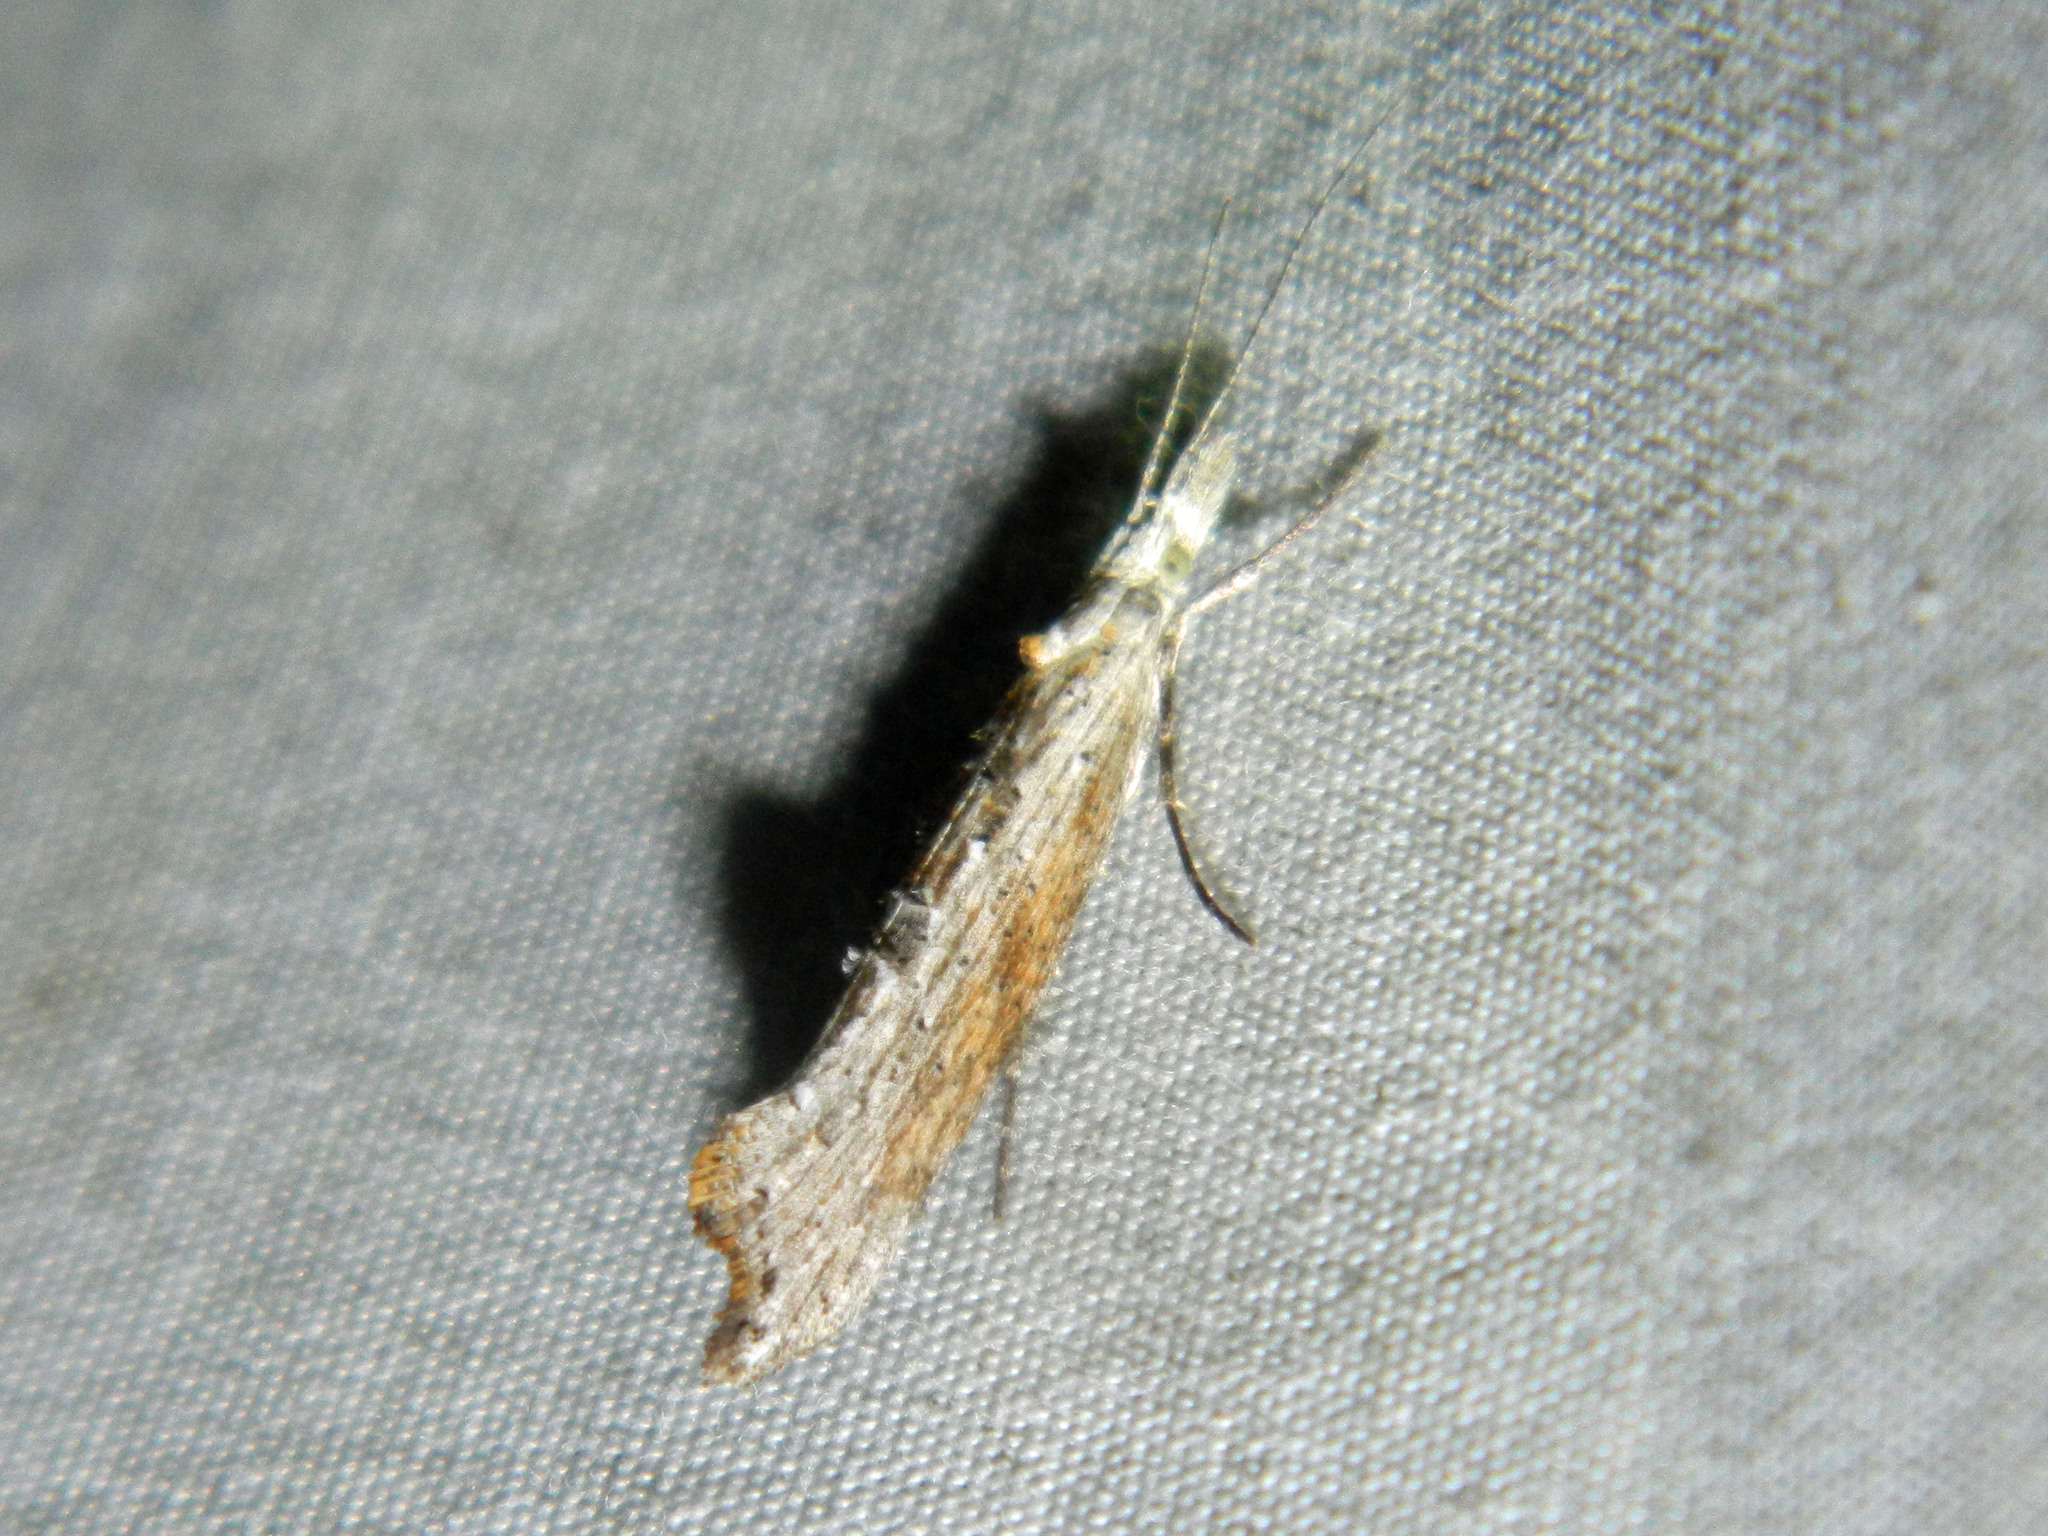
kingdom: Animalia
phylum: Arthropoda
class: Insecta
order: Lepidoptera
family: Ypsolophidae
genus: Ypsolopha
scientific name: Ypsolopha falciferella
